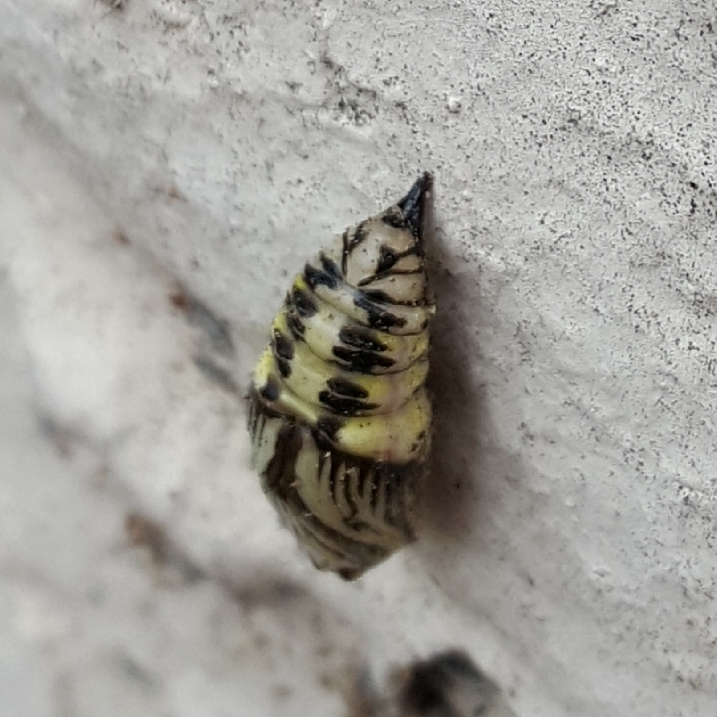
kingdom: Animalia
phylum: Arthropoda
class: Insecta
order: Lepidoptera
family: Notodontidae
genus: Phryganidia
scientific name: Phryganidia californica
